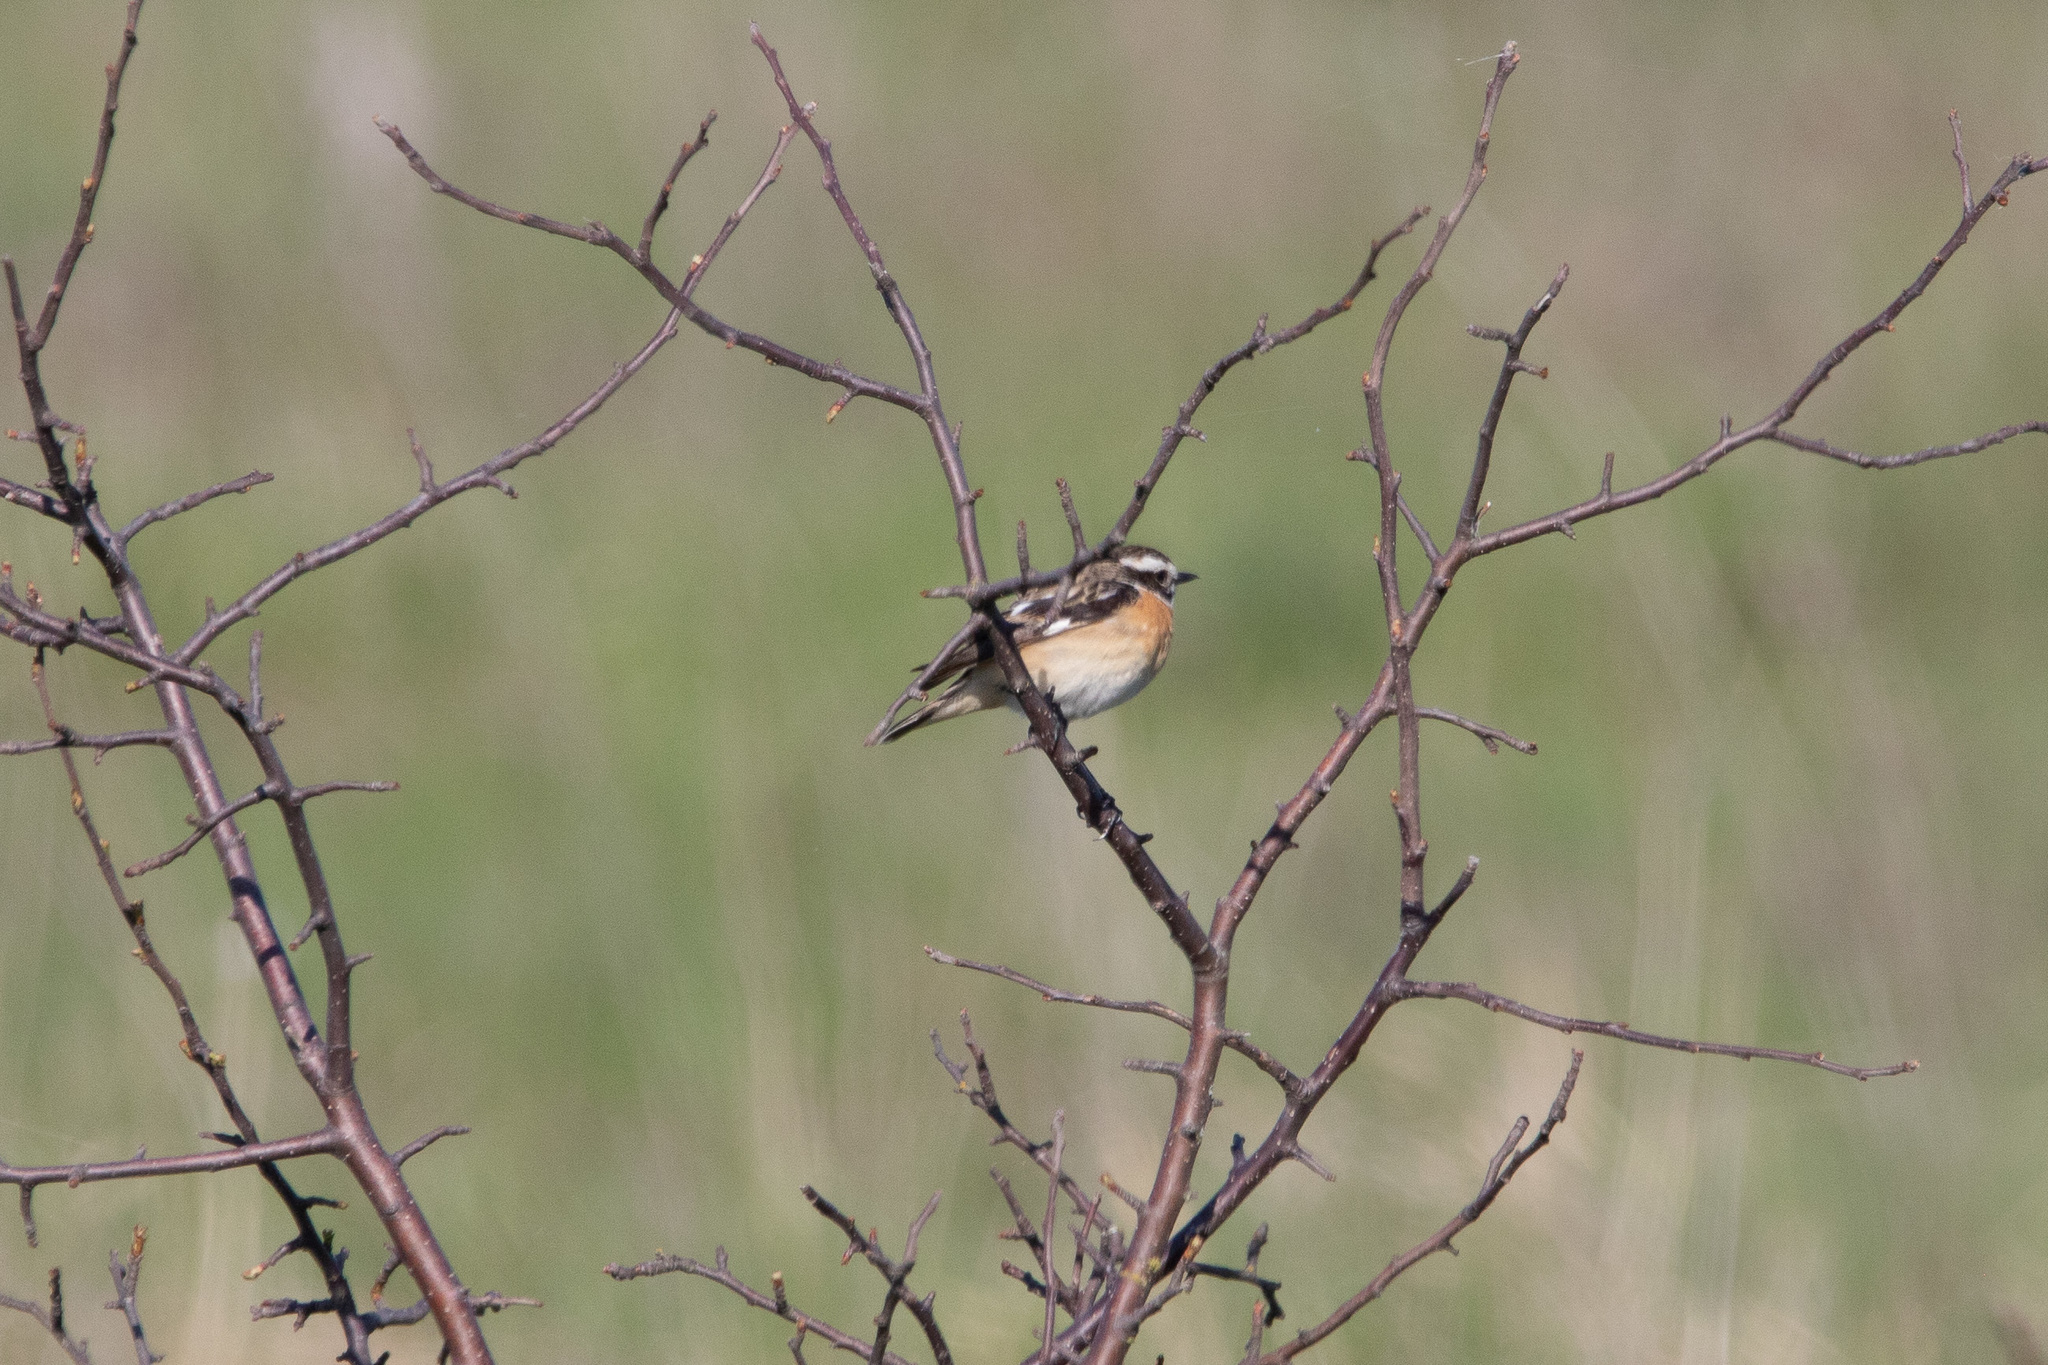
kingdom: Animalia
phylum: Chordata
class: Aves
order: Passeriformes
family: Muscicapidae
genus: Saxicola
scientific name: Saxicola rubetra
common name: Whinchat
